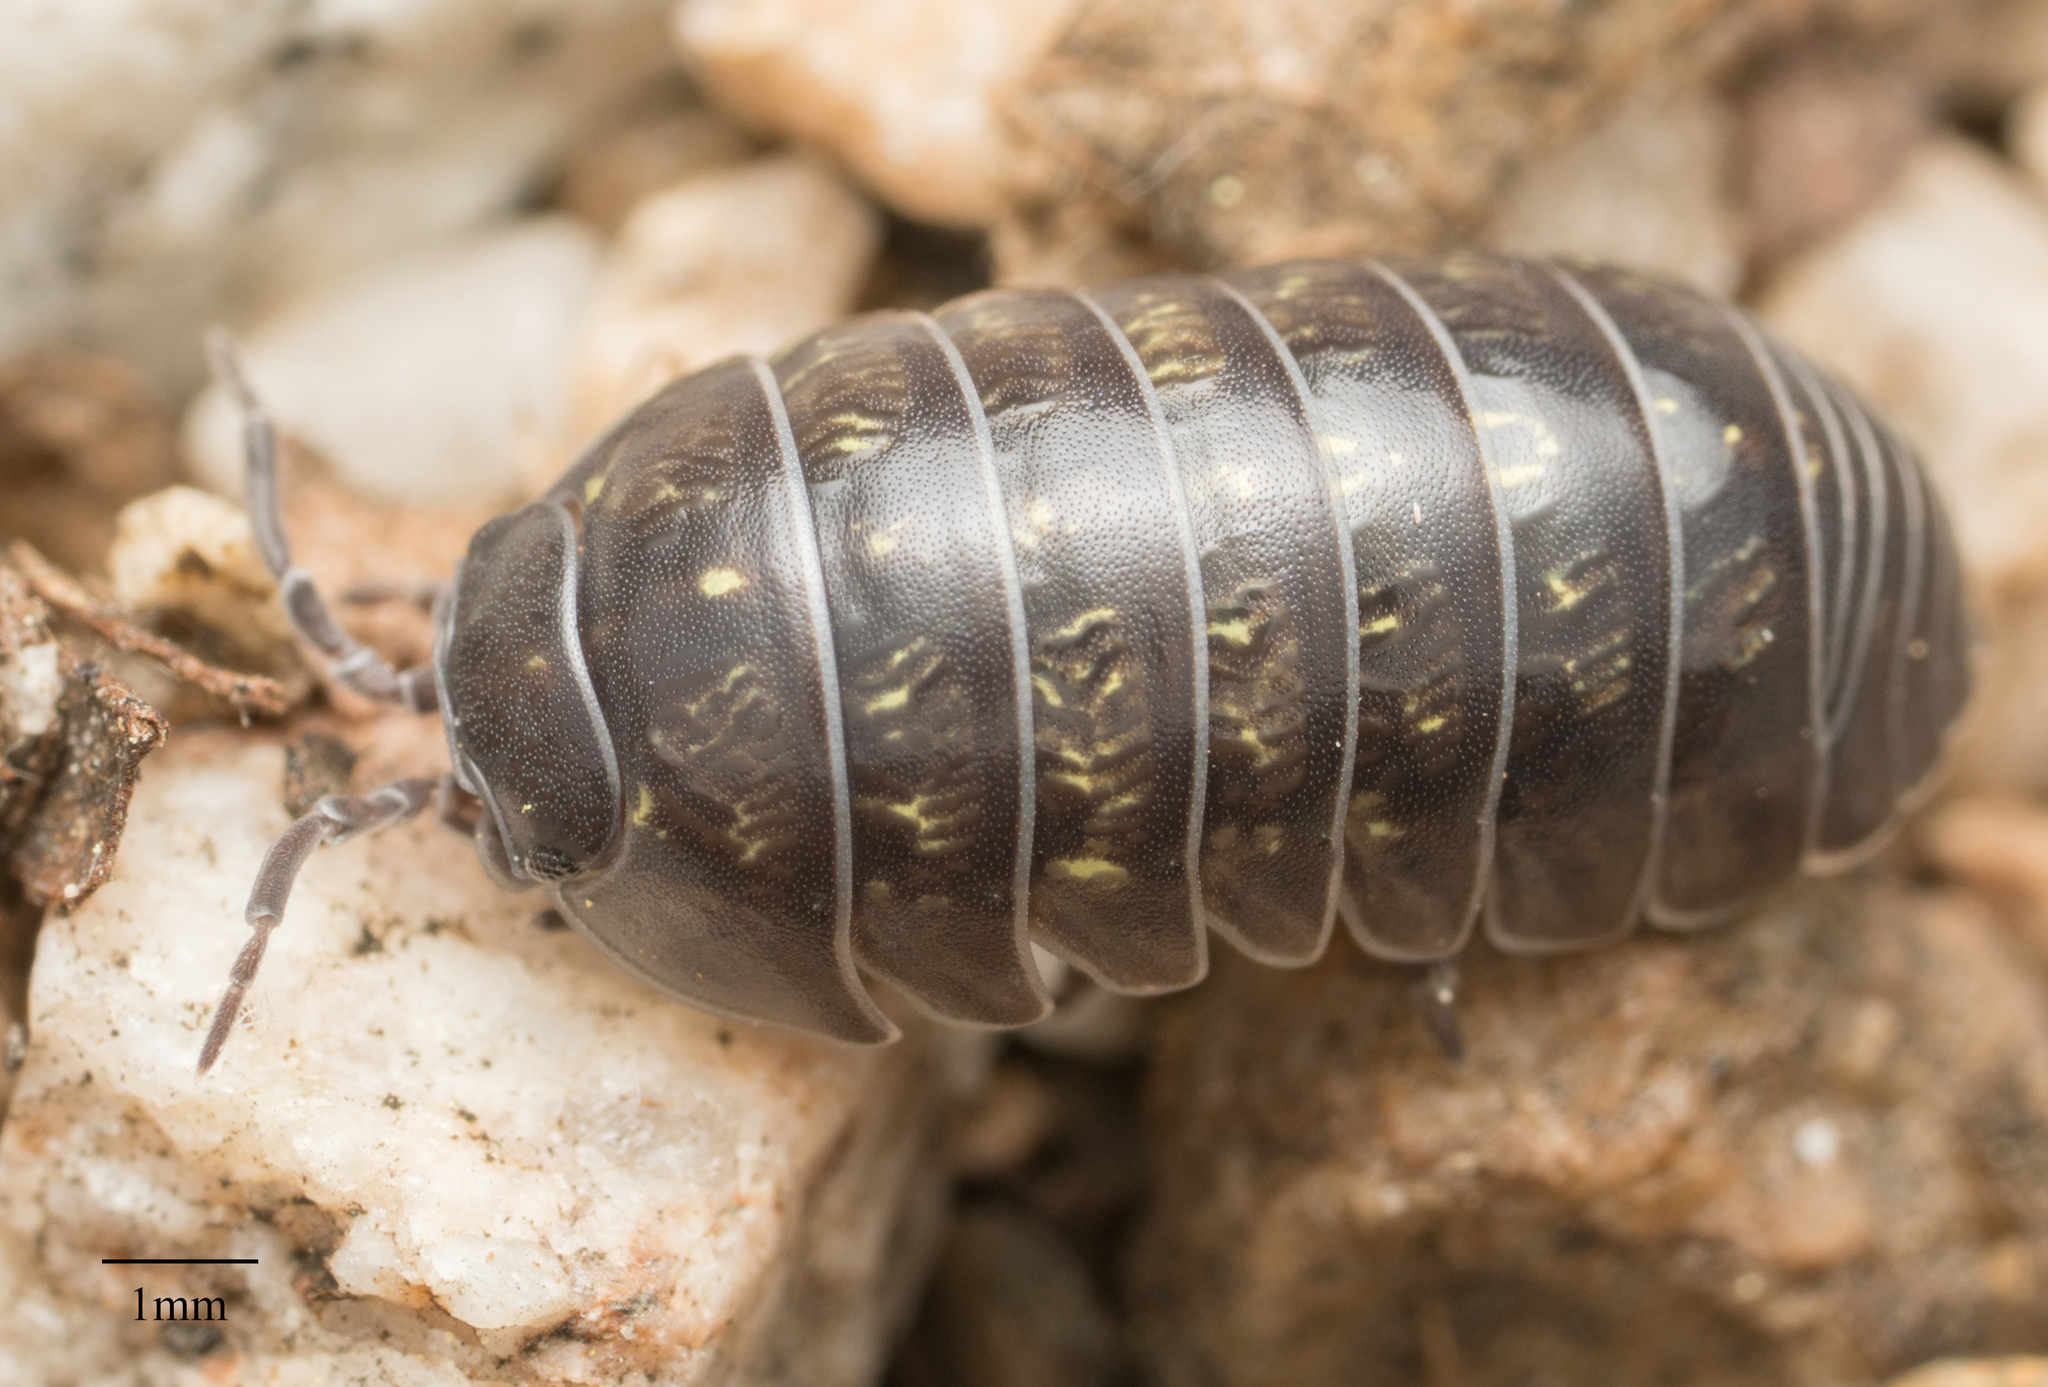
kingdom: Animalia
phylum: Arthropoda
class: Malacostraca
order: Isopoda
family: Armadillidiidae
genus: Armadillidium
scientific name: Armadillidium vulgare
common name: Common pill woodlouse
